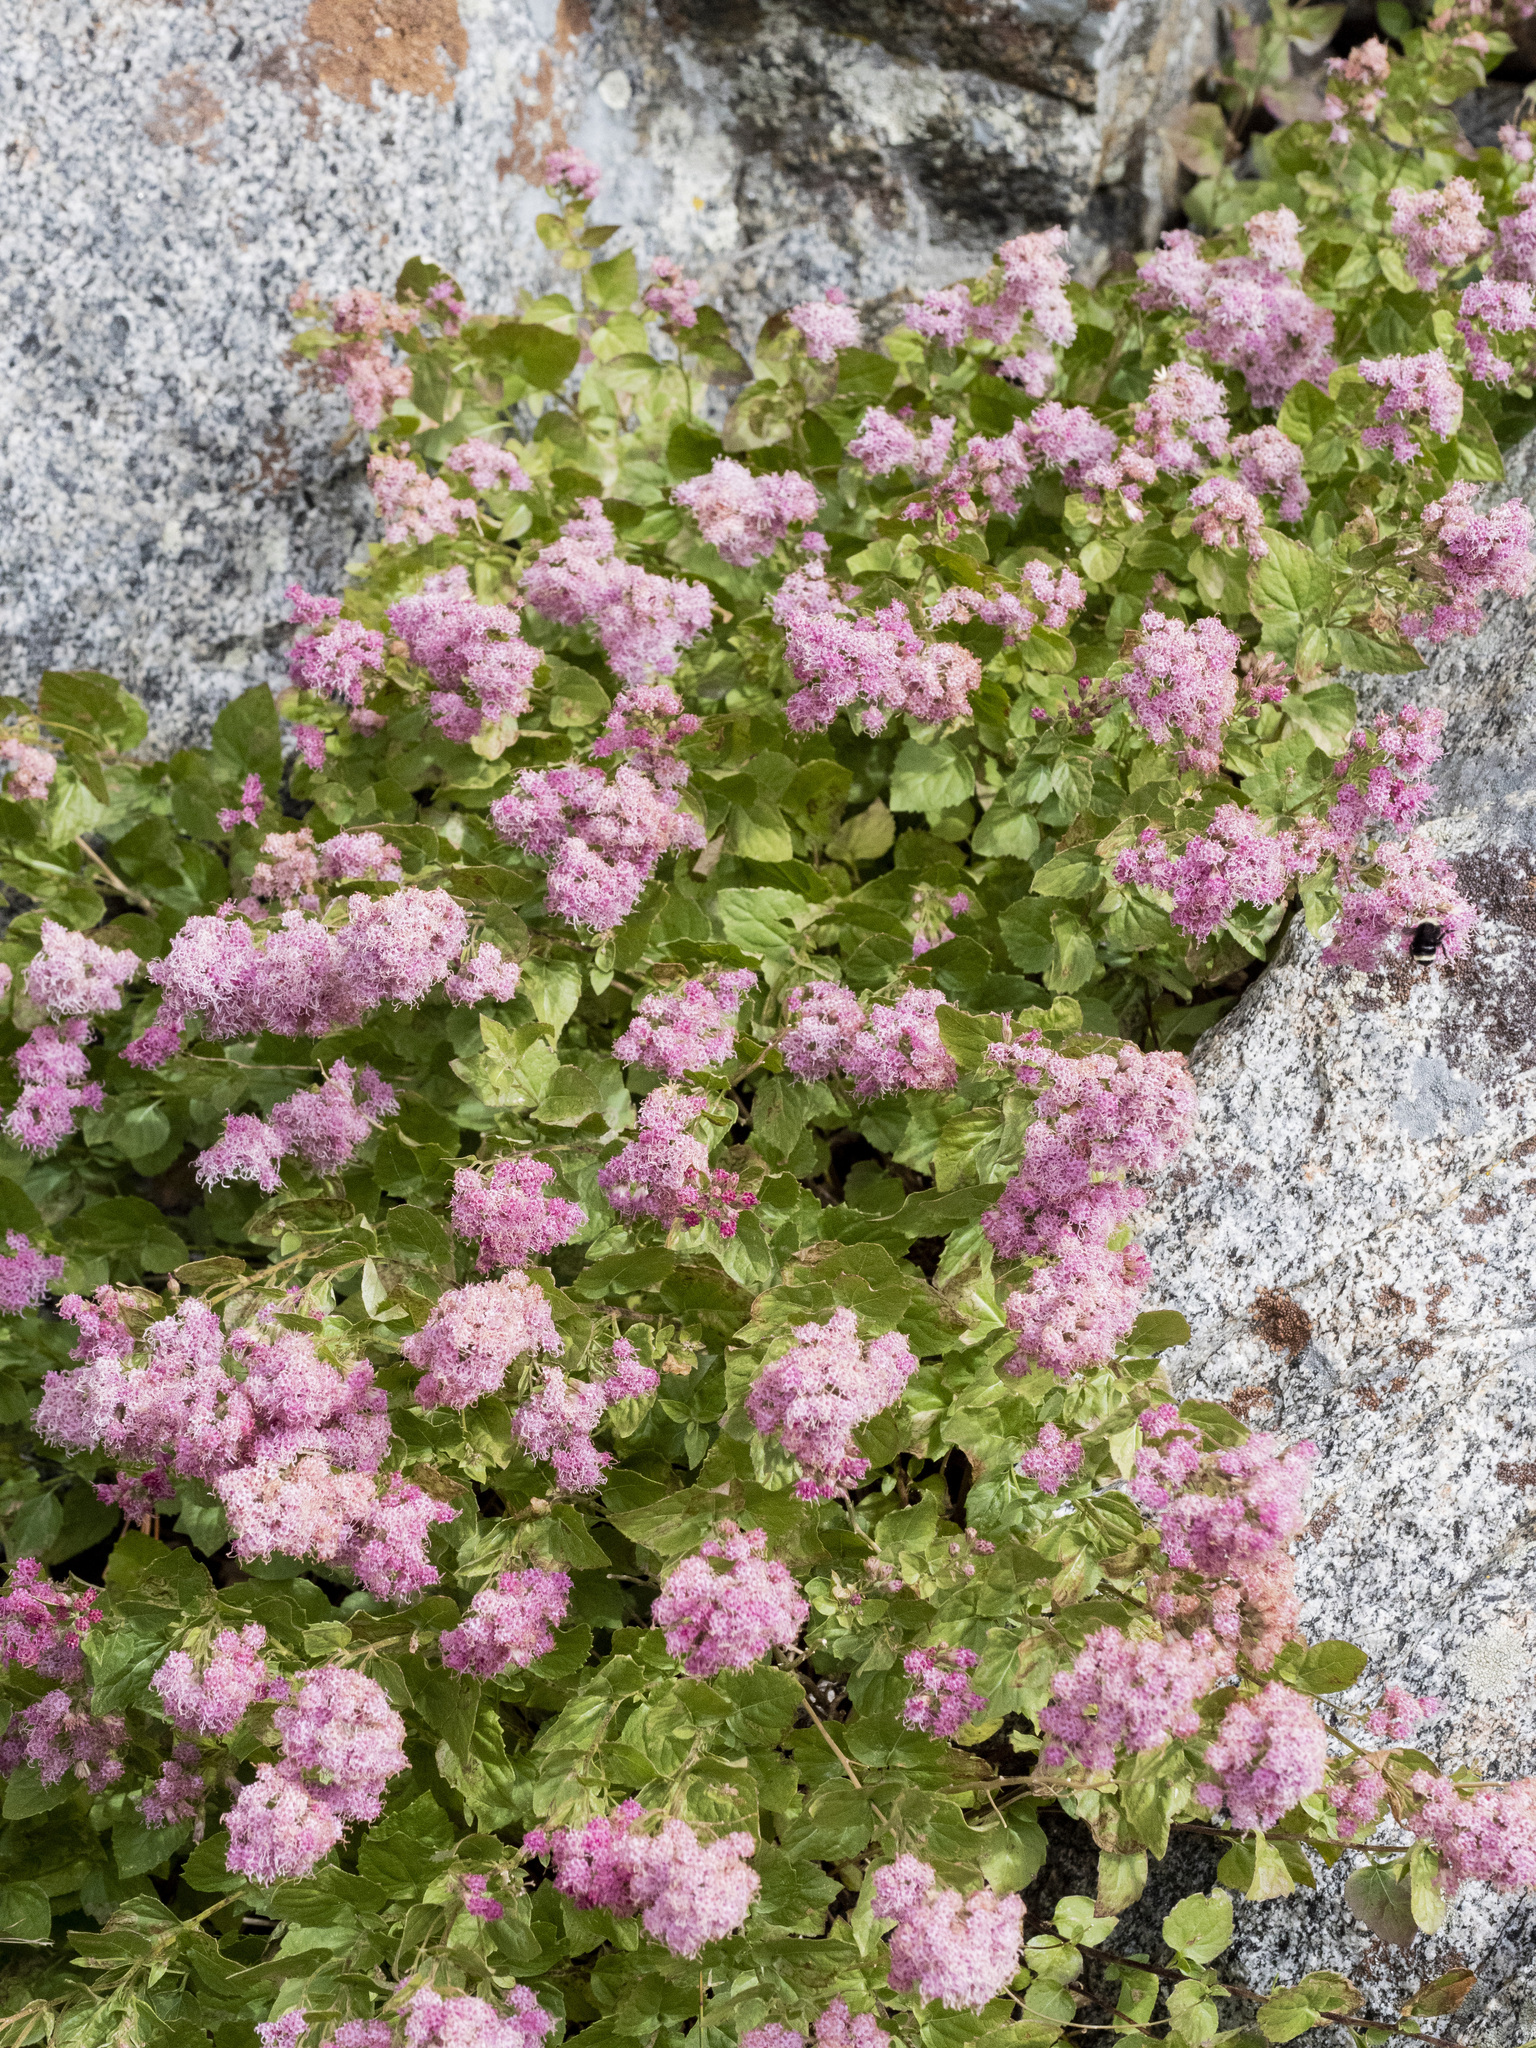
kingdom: Plantae
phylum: Tracheophyta
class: Magnoliopsida
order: Asterales
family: Asteraceae
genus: Ageratina
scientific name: Ageratina occidentalis
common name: Western snakeroot
